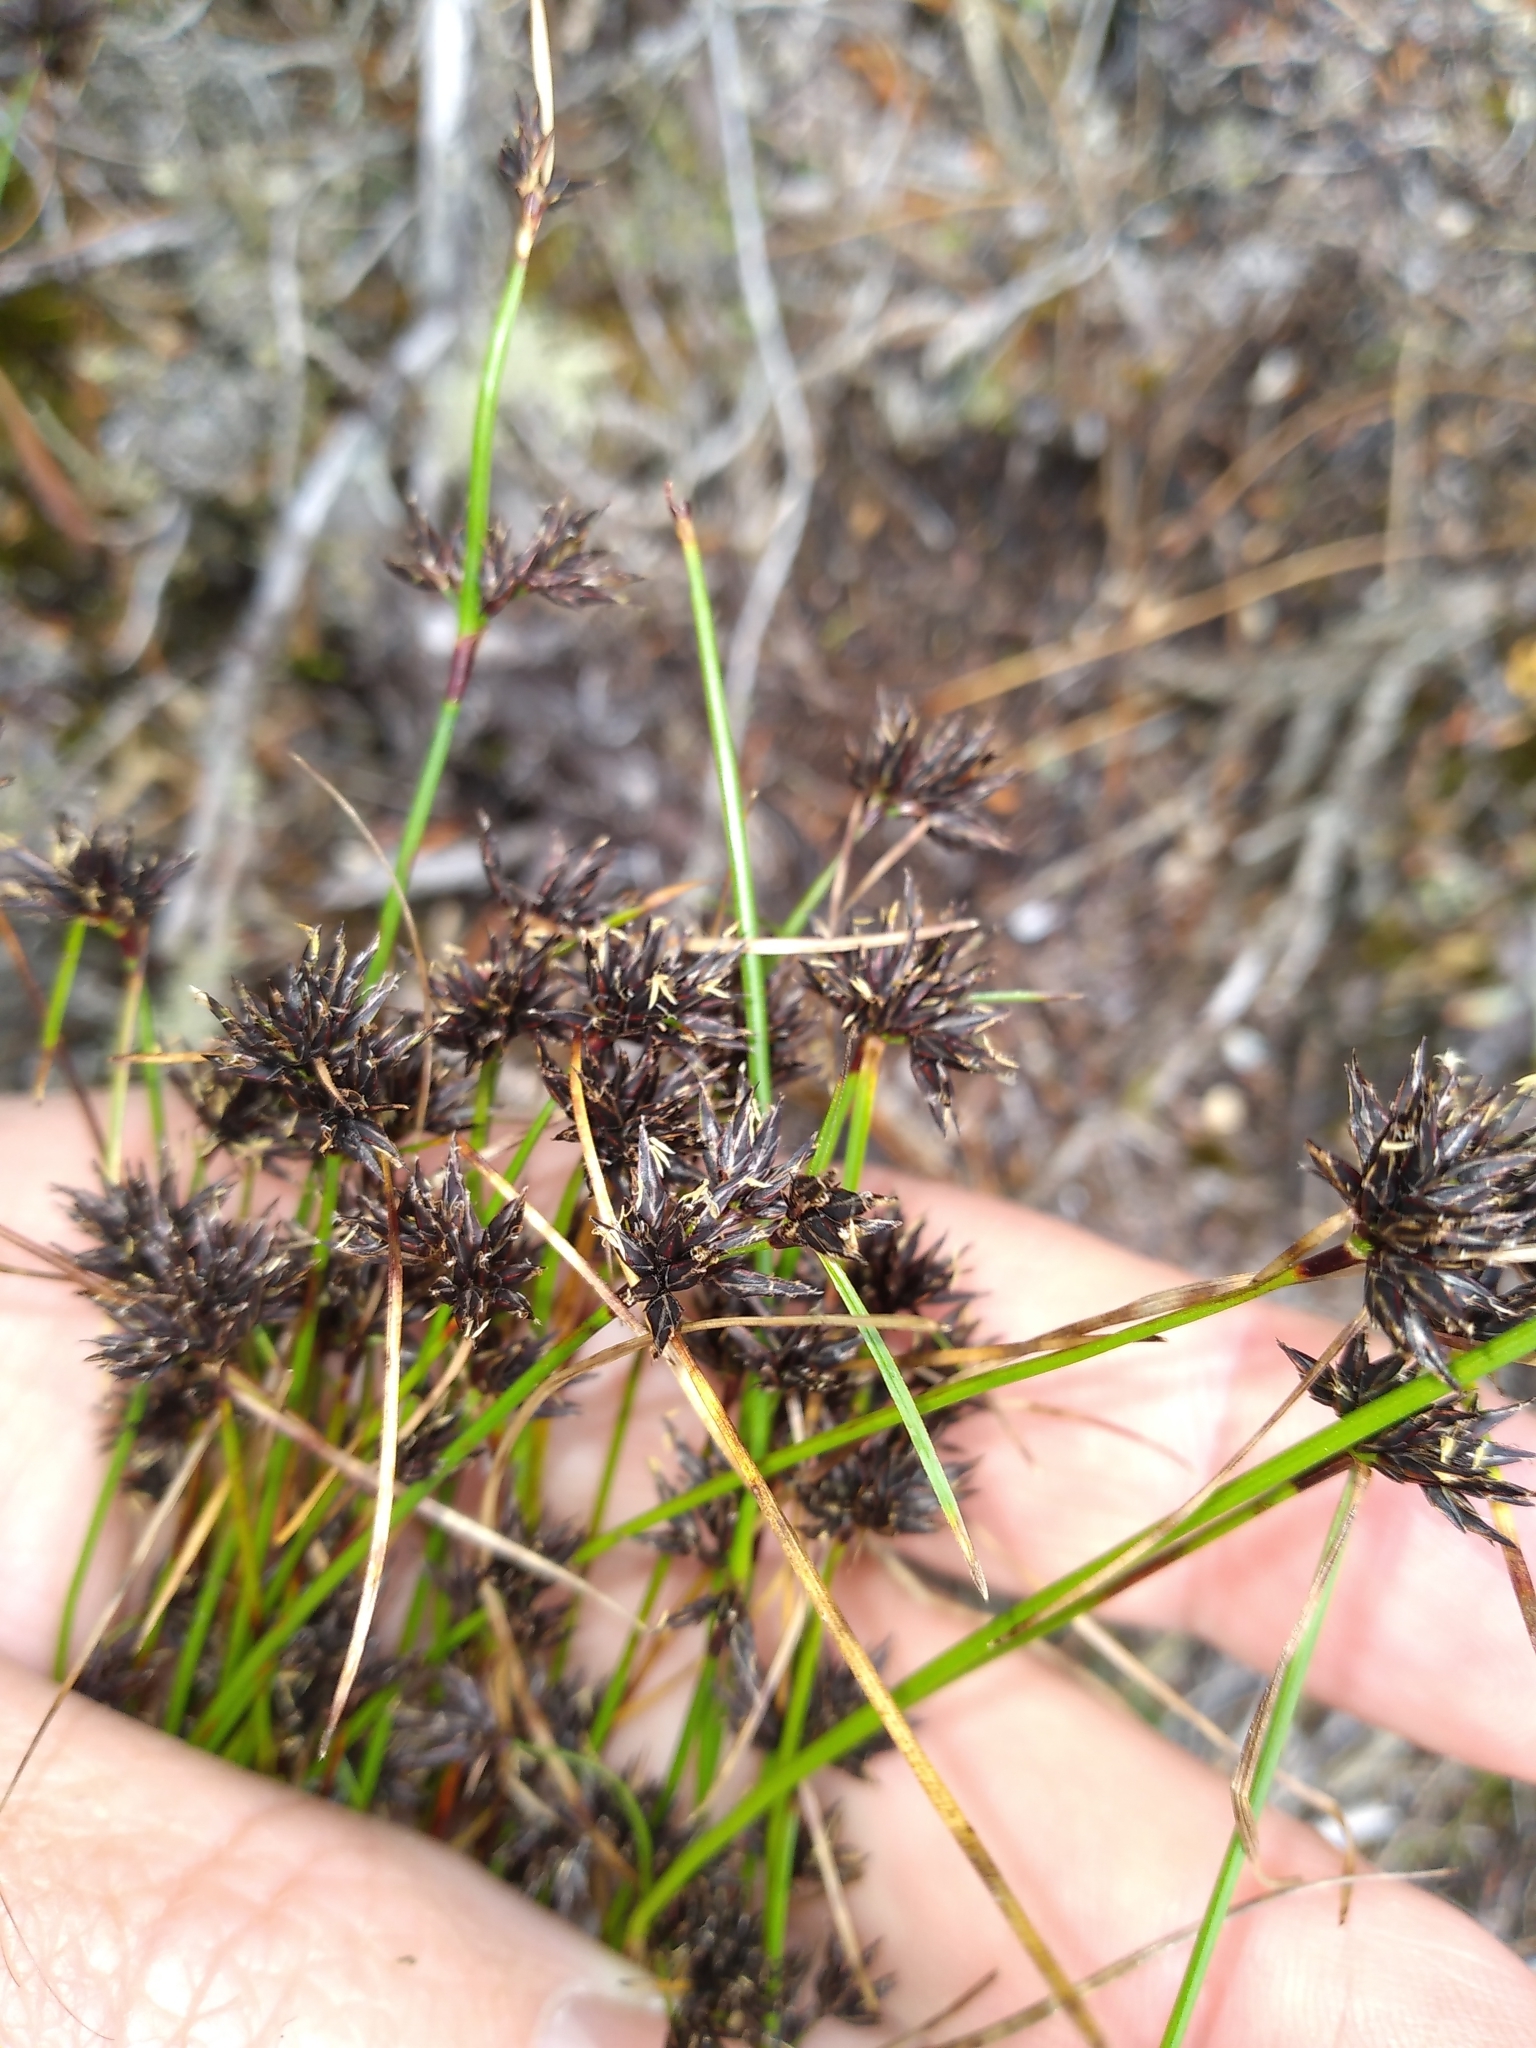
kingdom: Plantae
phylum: Tracheophyta
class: Liliopsida
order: Poales
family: Cyperaceae
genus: Schoenus
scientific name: Schoenus apogon
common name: Smooth bogrush
